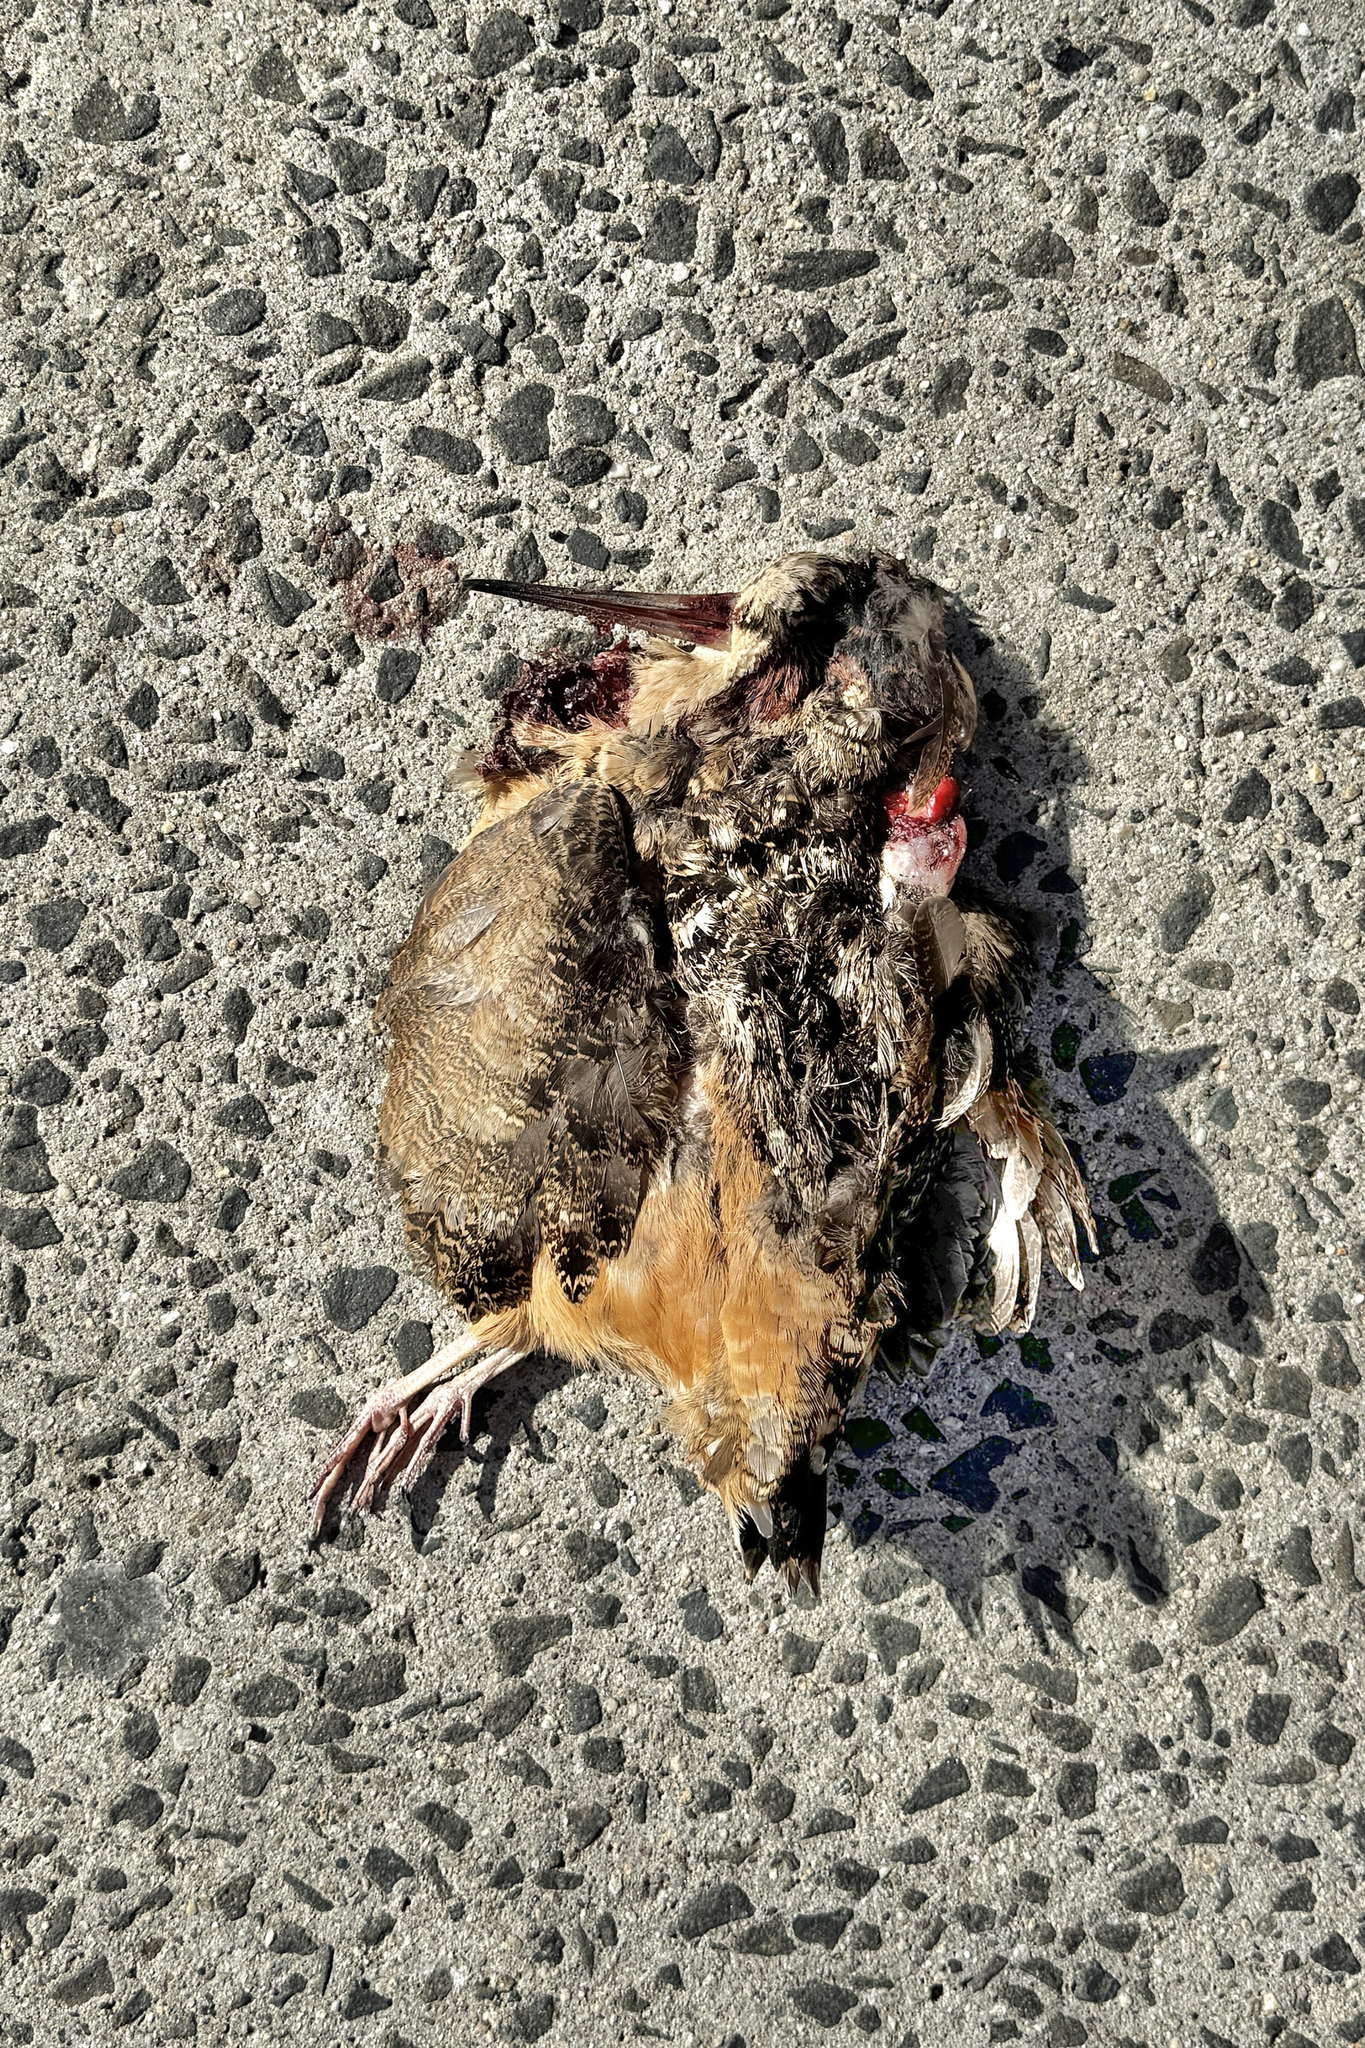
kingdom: Animalia
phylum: Chordata
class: Aves
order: Charadriiformes
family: Scolopacidae
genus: Scolopax
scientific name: Scolopax minor
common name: American woodcock
